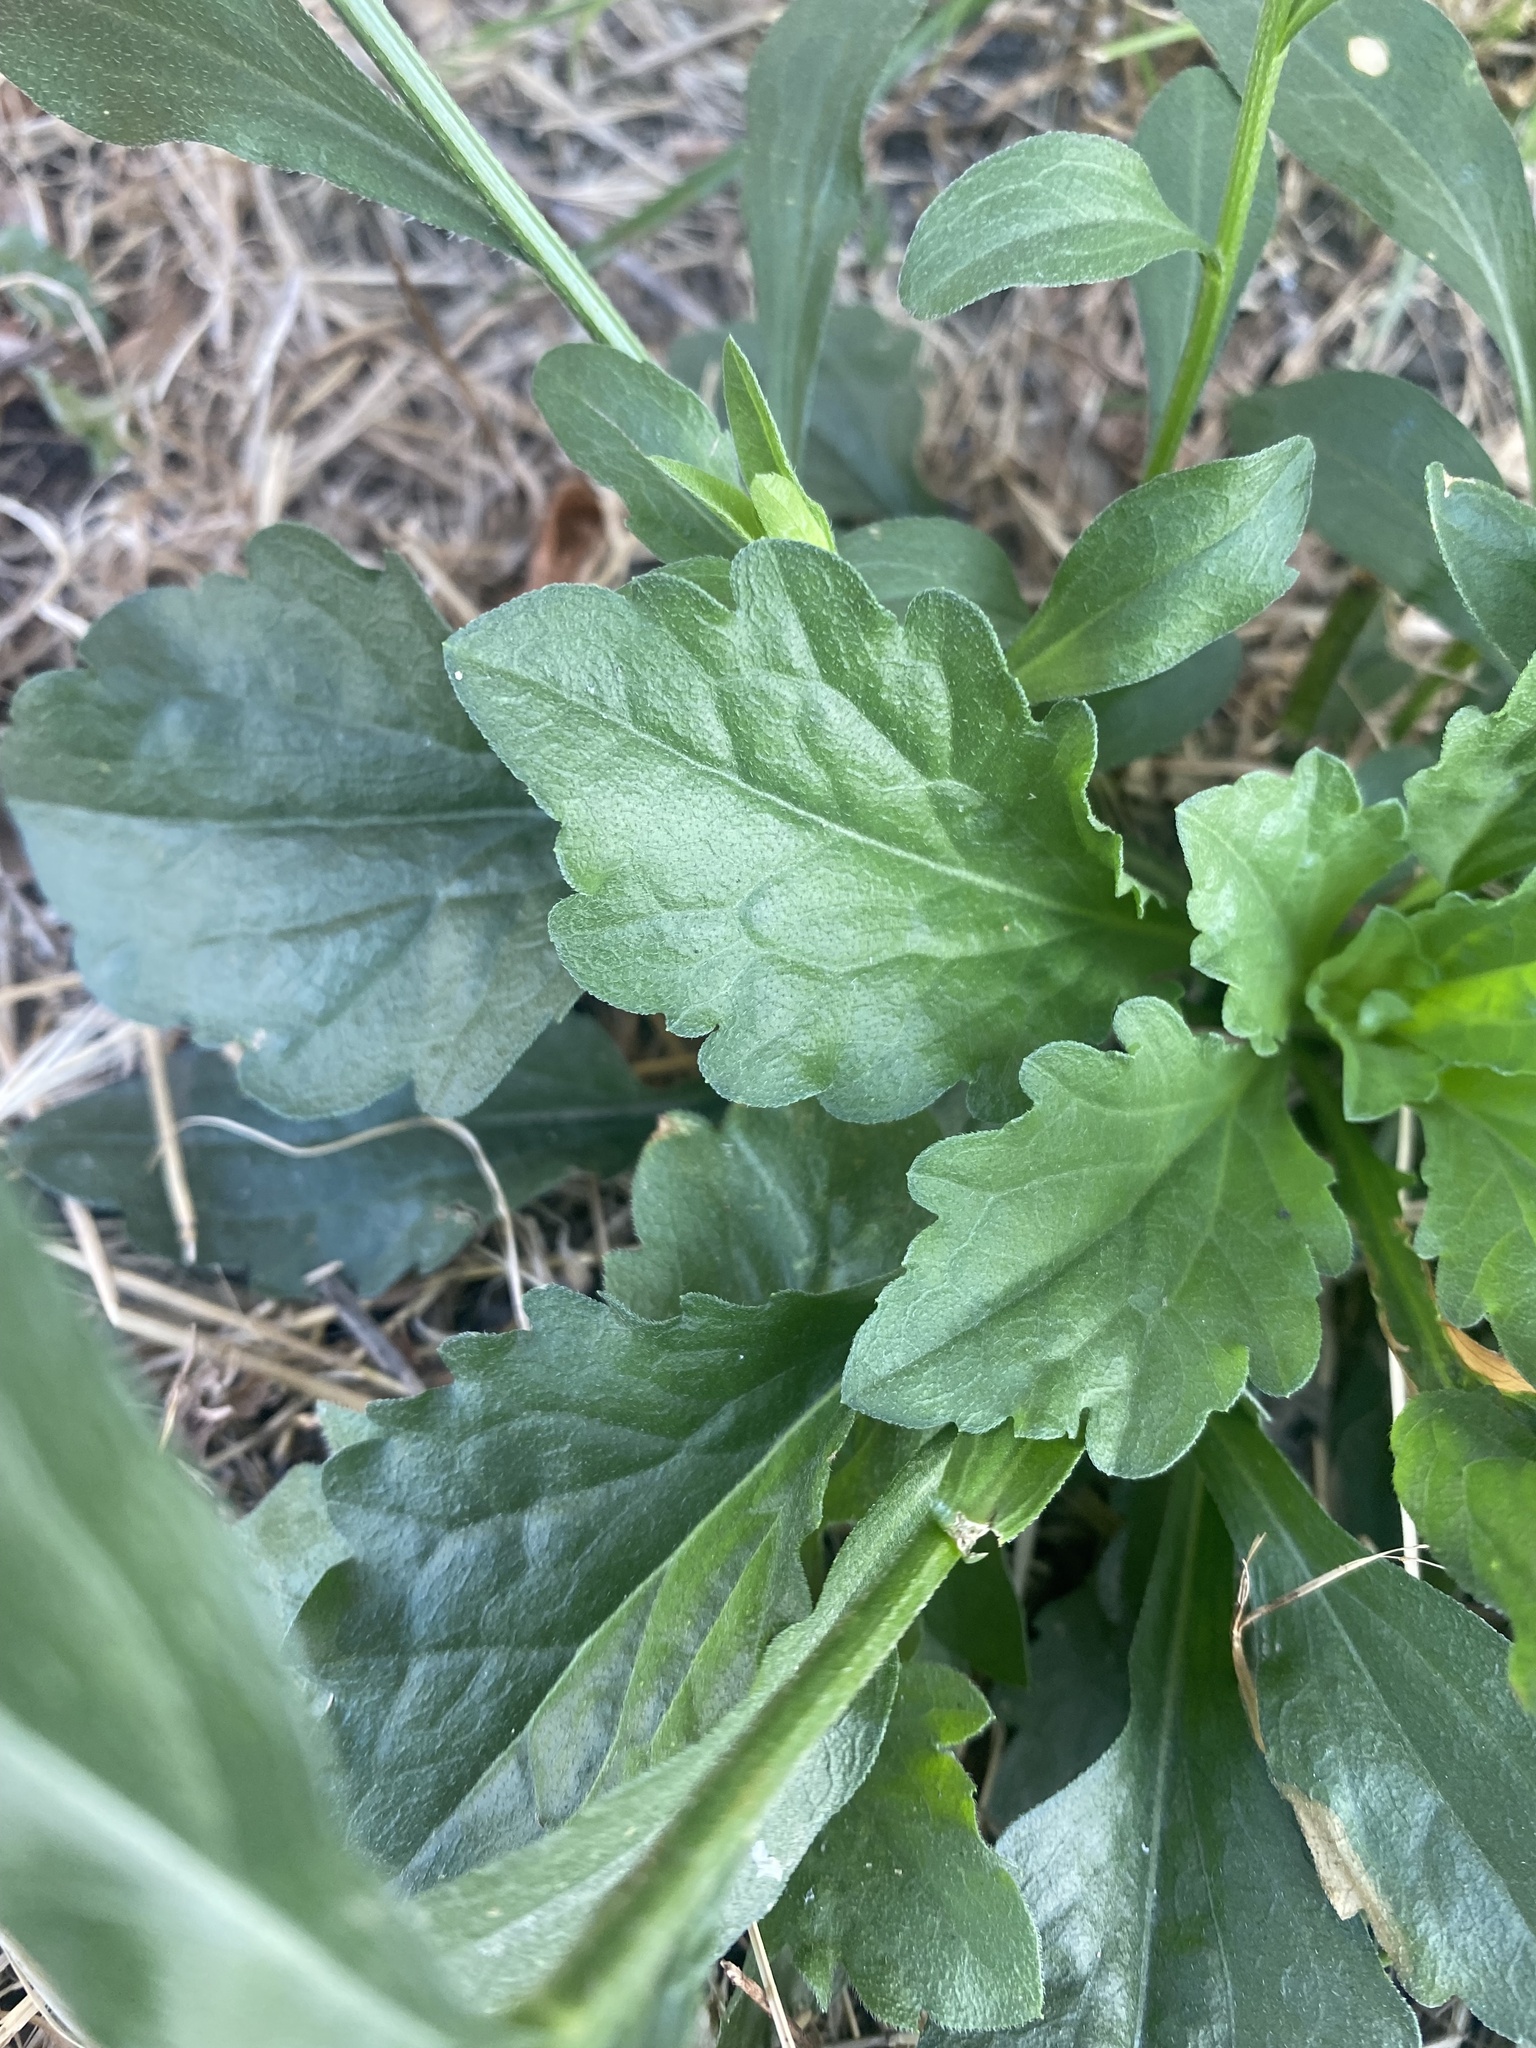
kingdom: Plantae
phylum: Tracheophyta
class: Magnoliopsida
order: Asterales
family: Asteraceae
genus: Erigeron
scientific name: Erigeron annuus
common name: Tall fleabane
